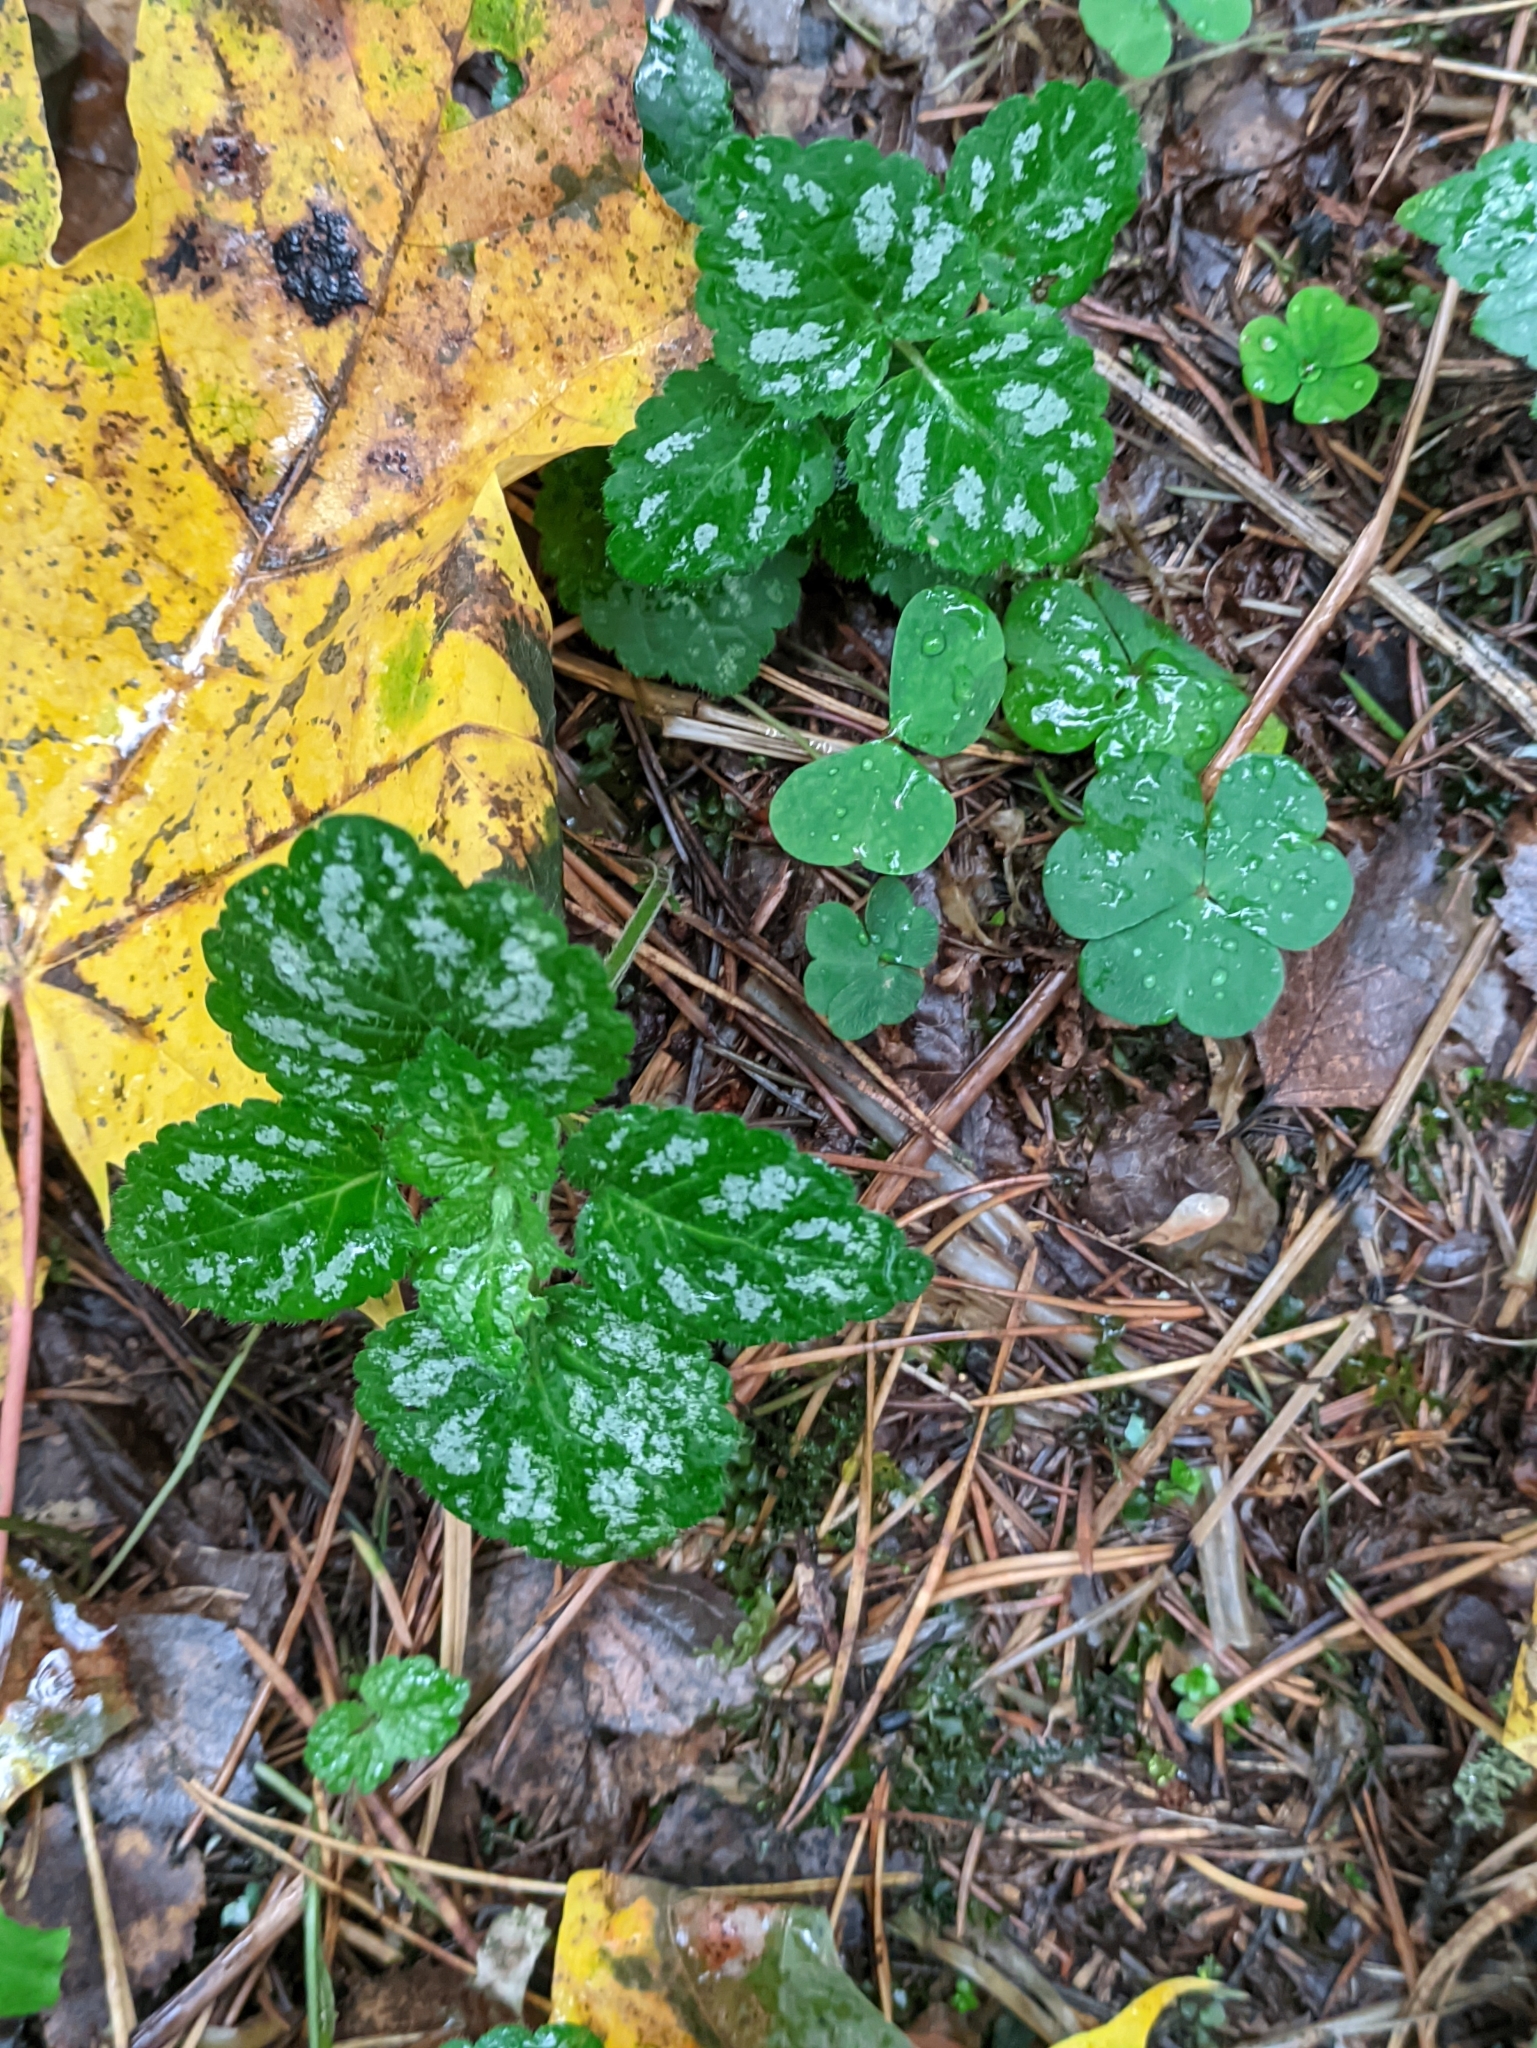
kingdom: Plantae
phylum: Tracheophyta
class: Magnoliopsida
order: Lamiales
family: Lamiaceae
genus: Lamium
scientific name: Lamium galeobdolon
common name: Yellow archangel
